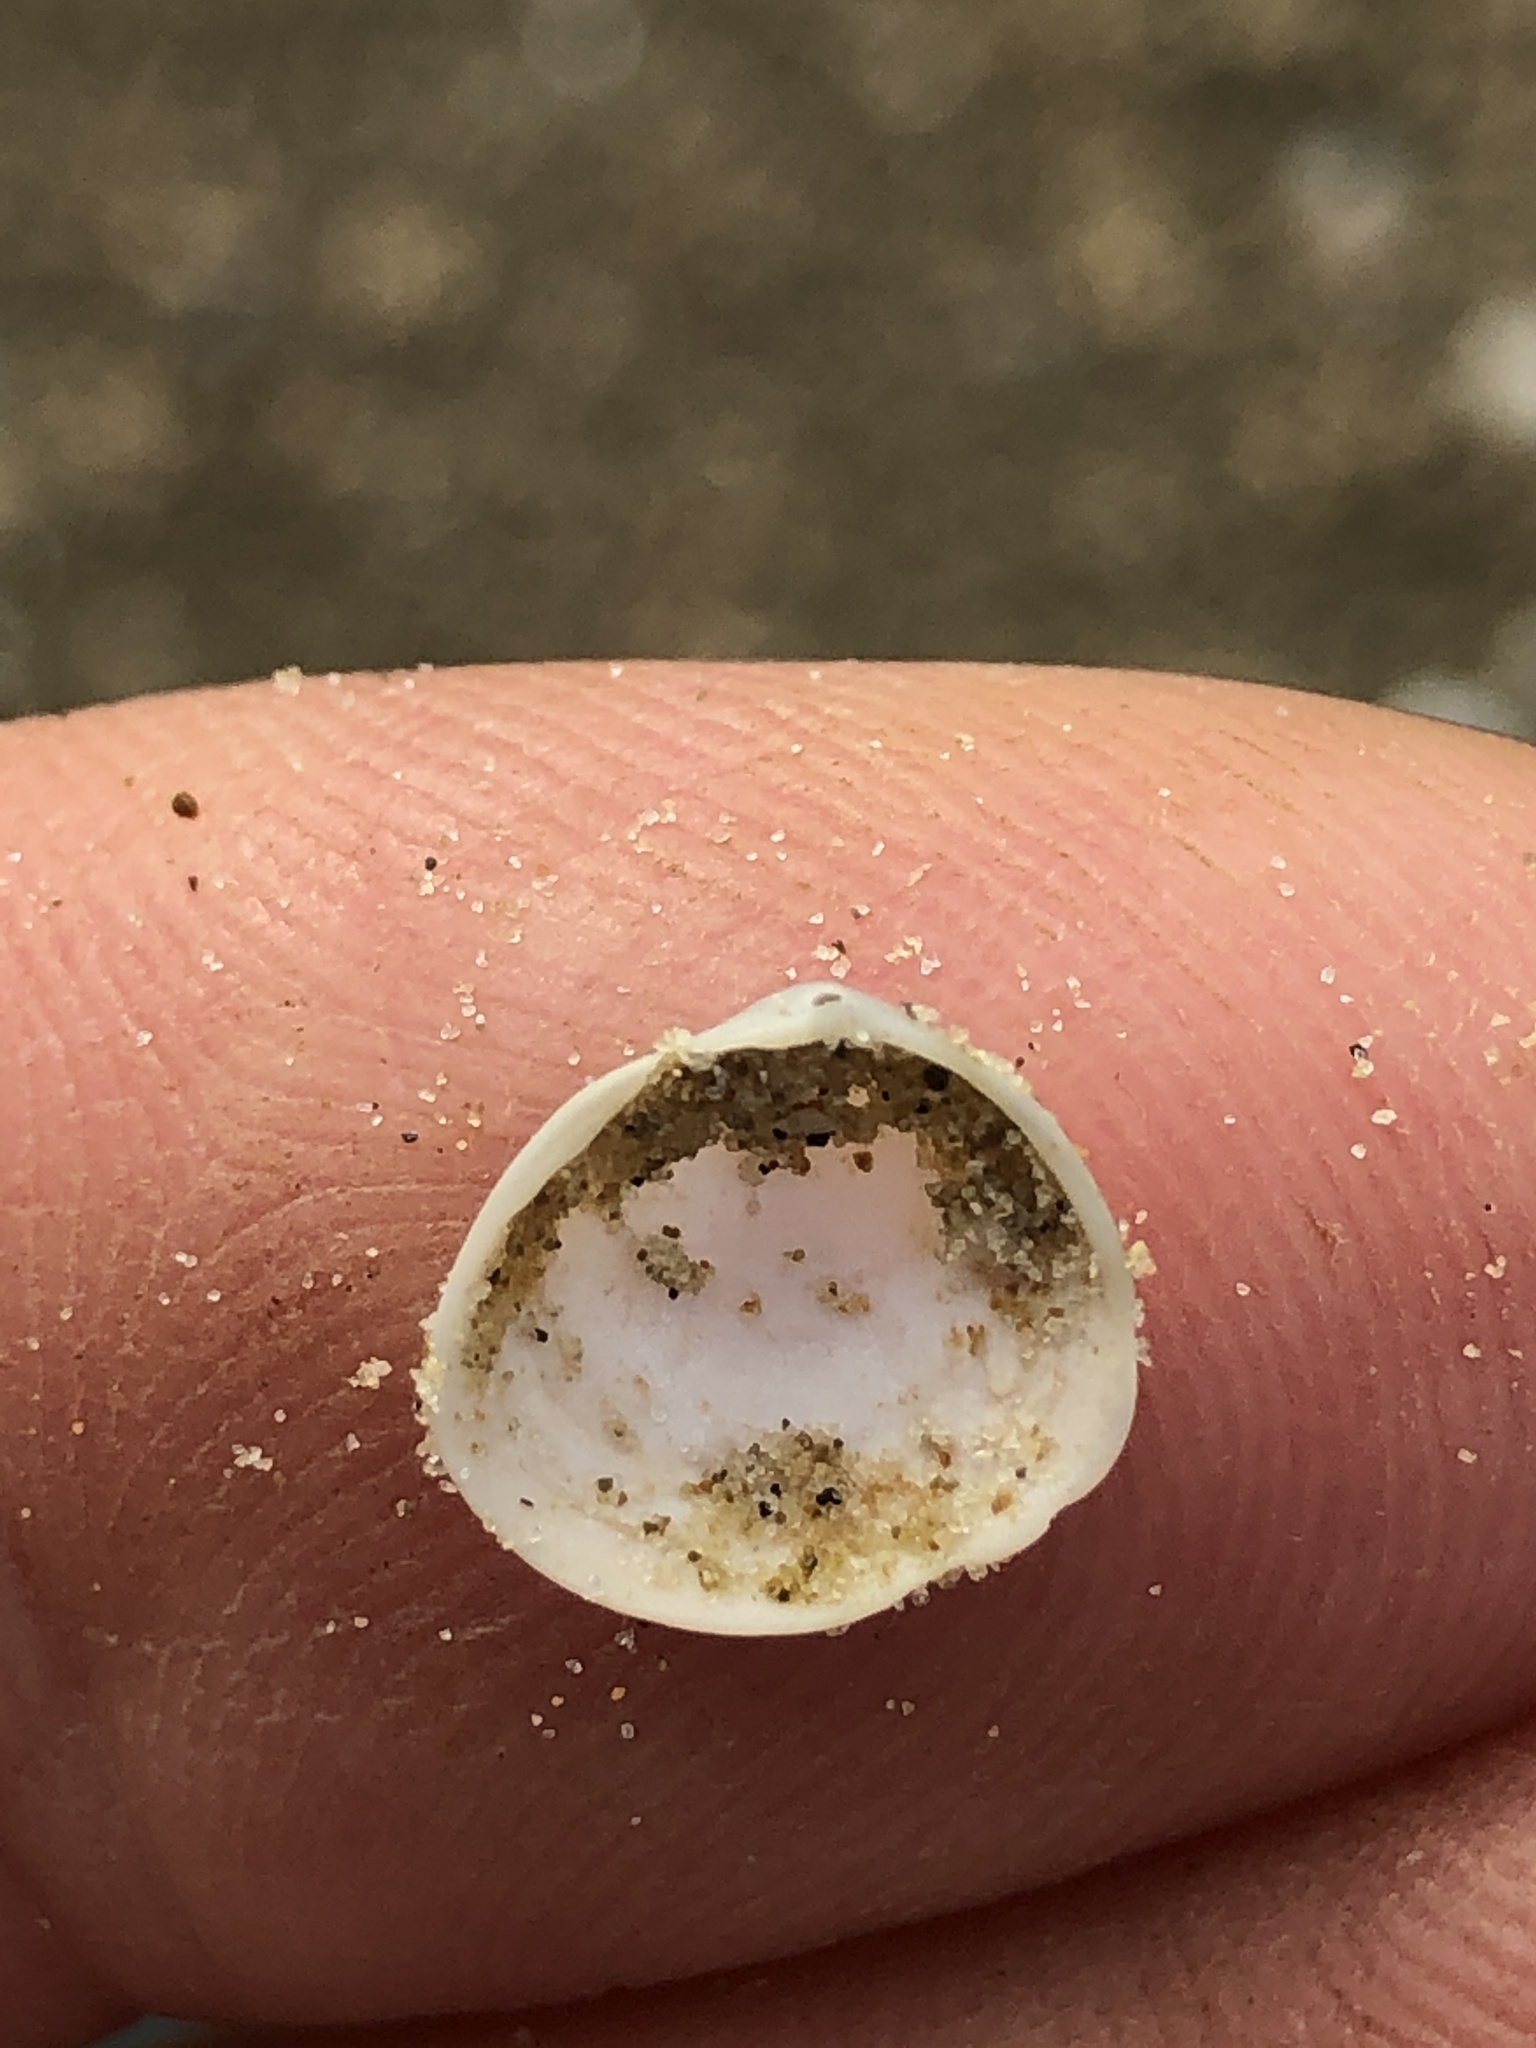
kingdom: Animalia
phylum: Mollusca
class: Bivalvia
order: Cardiida
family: Semelidae
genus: Abra
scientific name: Abra aequalis
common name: Common atlantic abra
